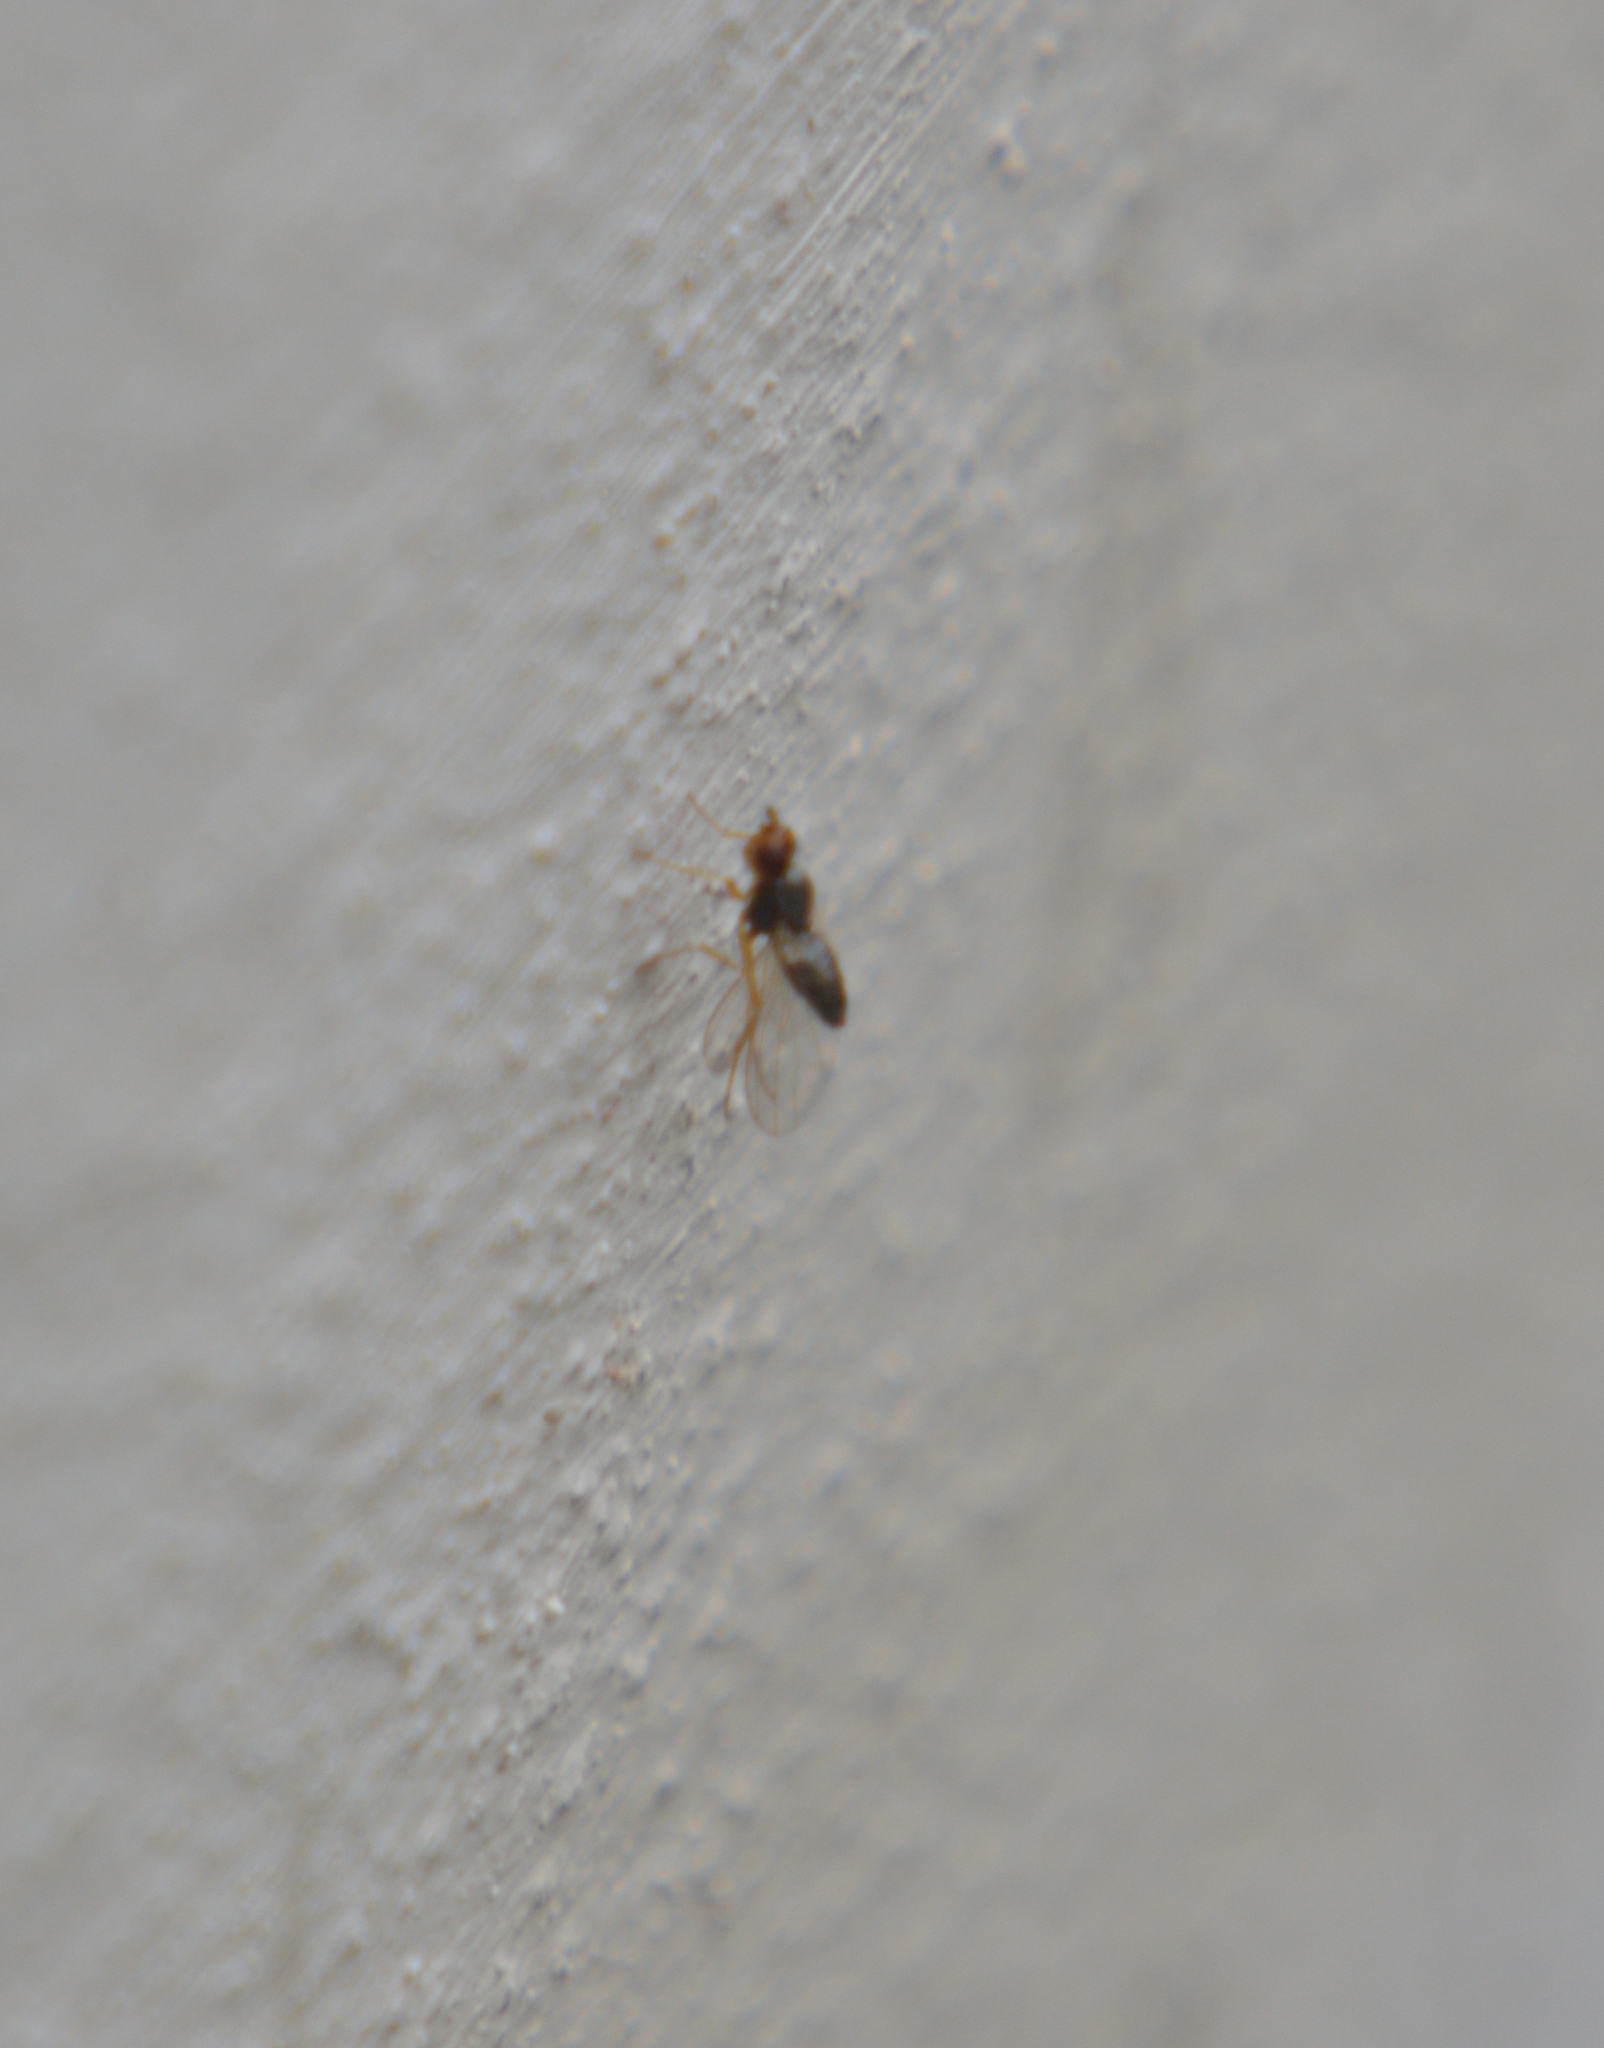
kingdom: Animalia
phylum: Arthropoda
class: Insecta
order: Diptera
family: Psilidae
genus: Chamaepsila
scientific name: Chamaepsila
